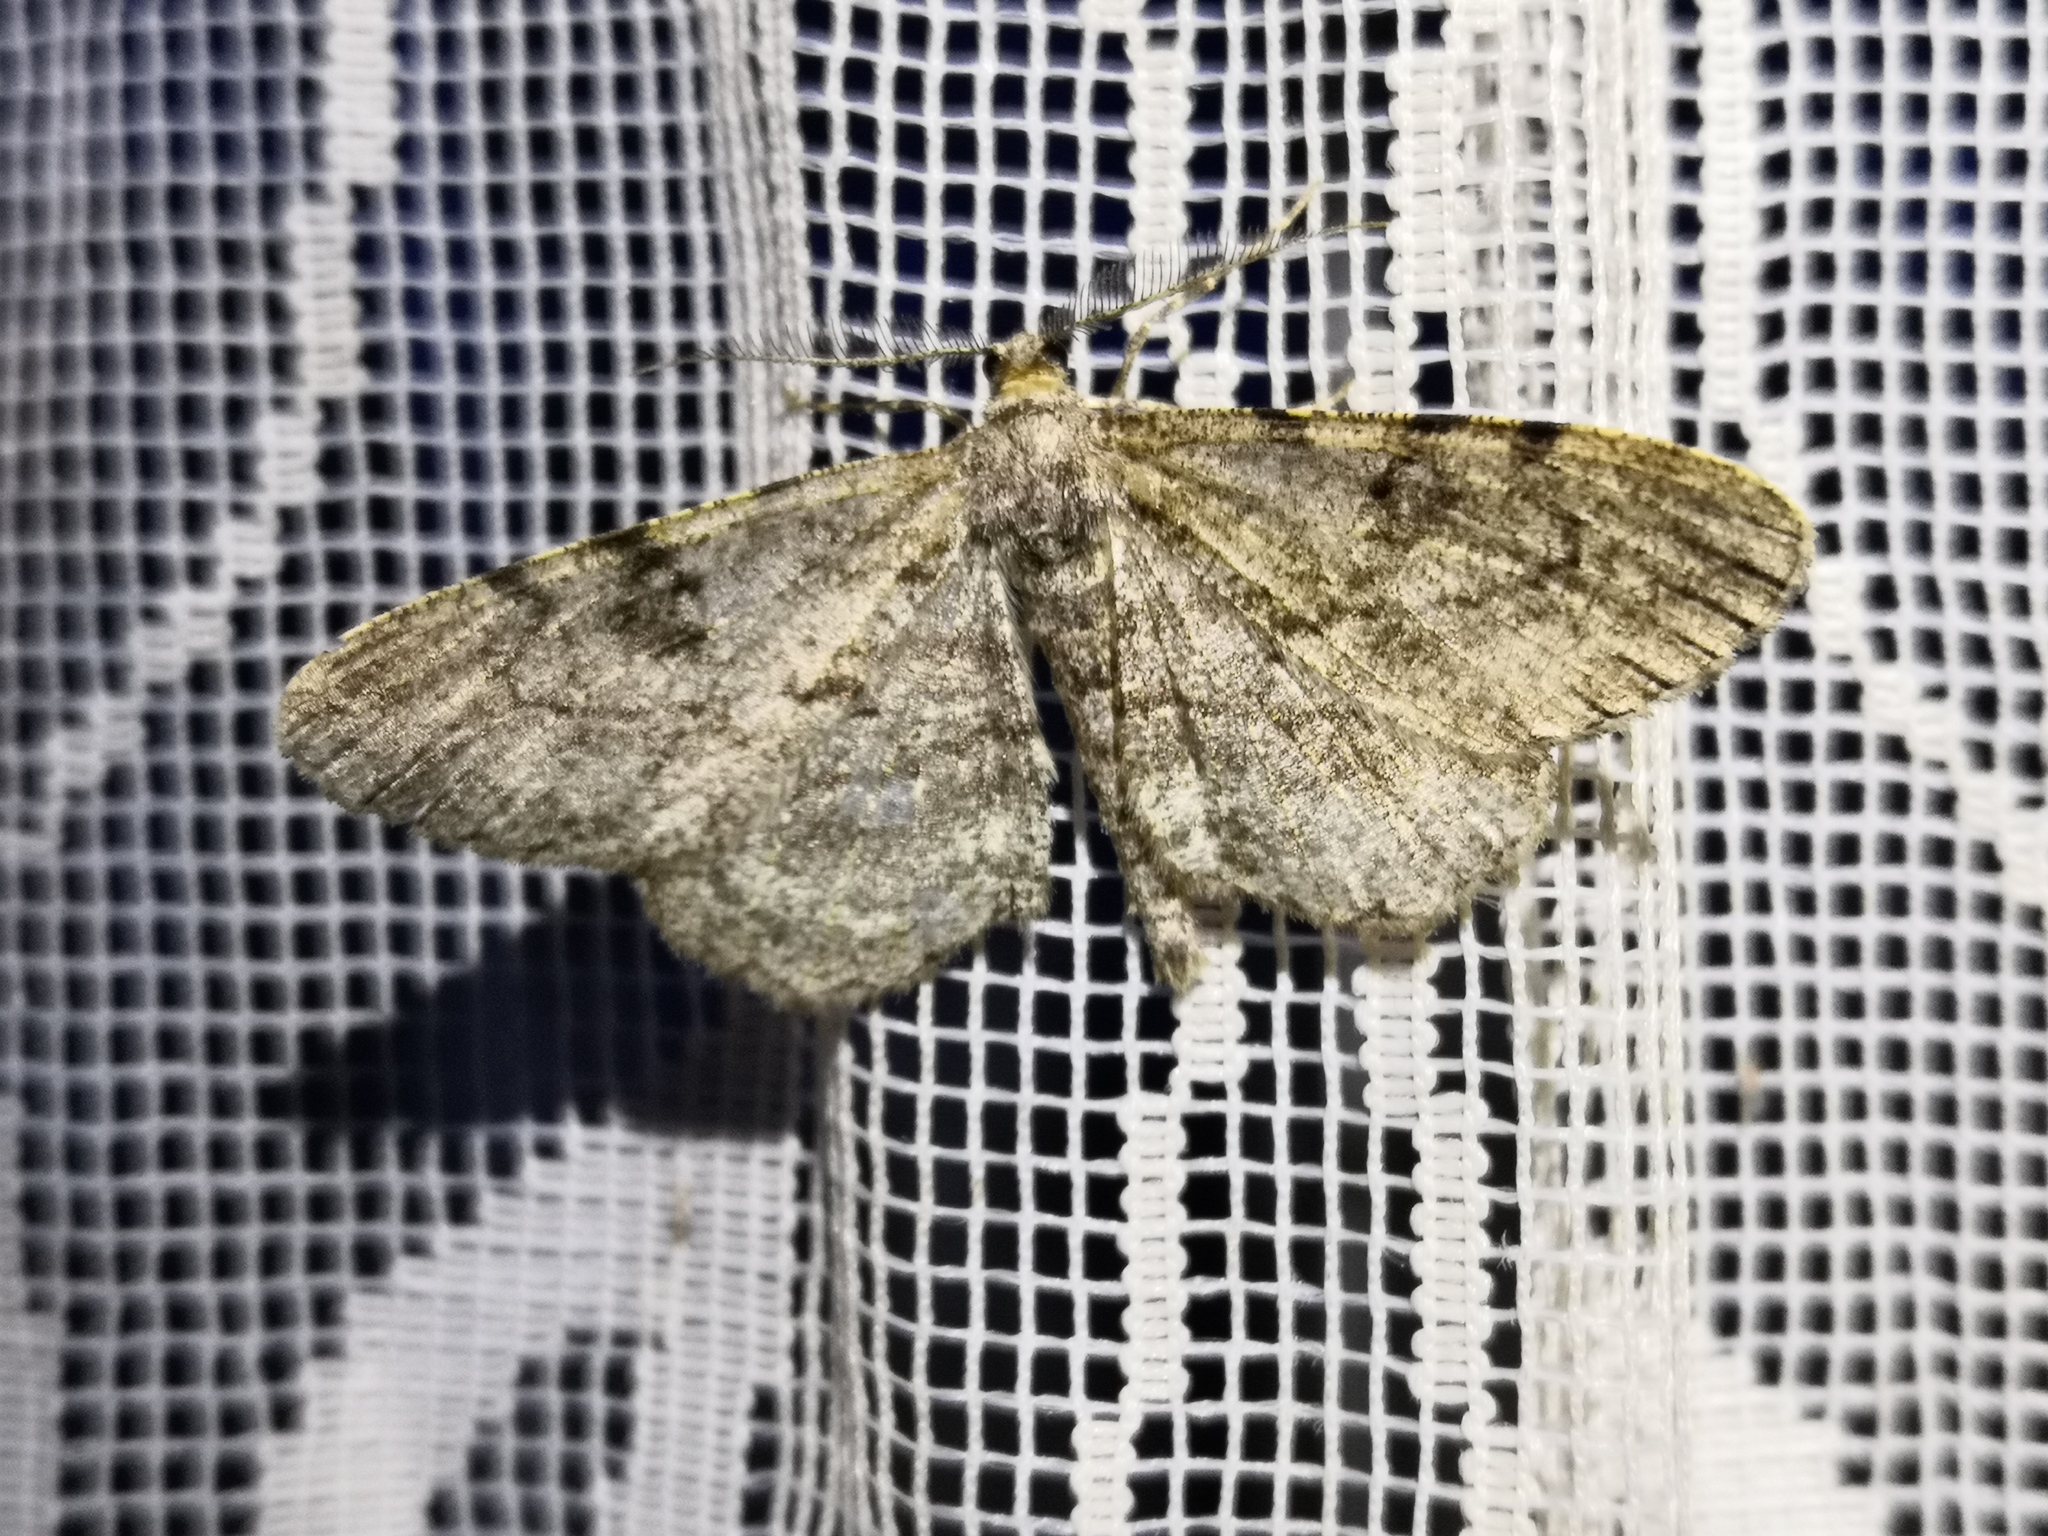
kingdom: Animalia
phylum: Arthropoda
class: Insecta
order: Lepidoptera
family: Geometridae
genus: Peribatodes
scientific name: Peribatodes rhomboidaria
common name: Willow beauty
